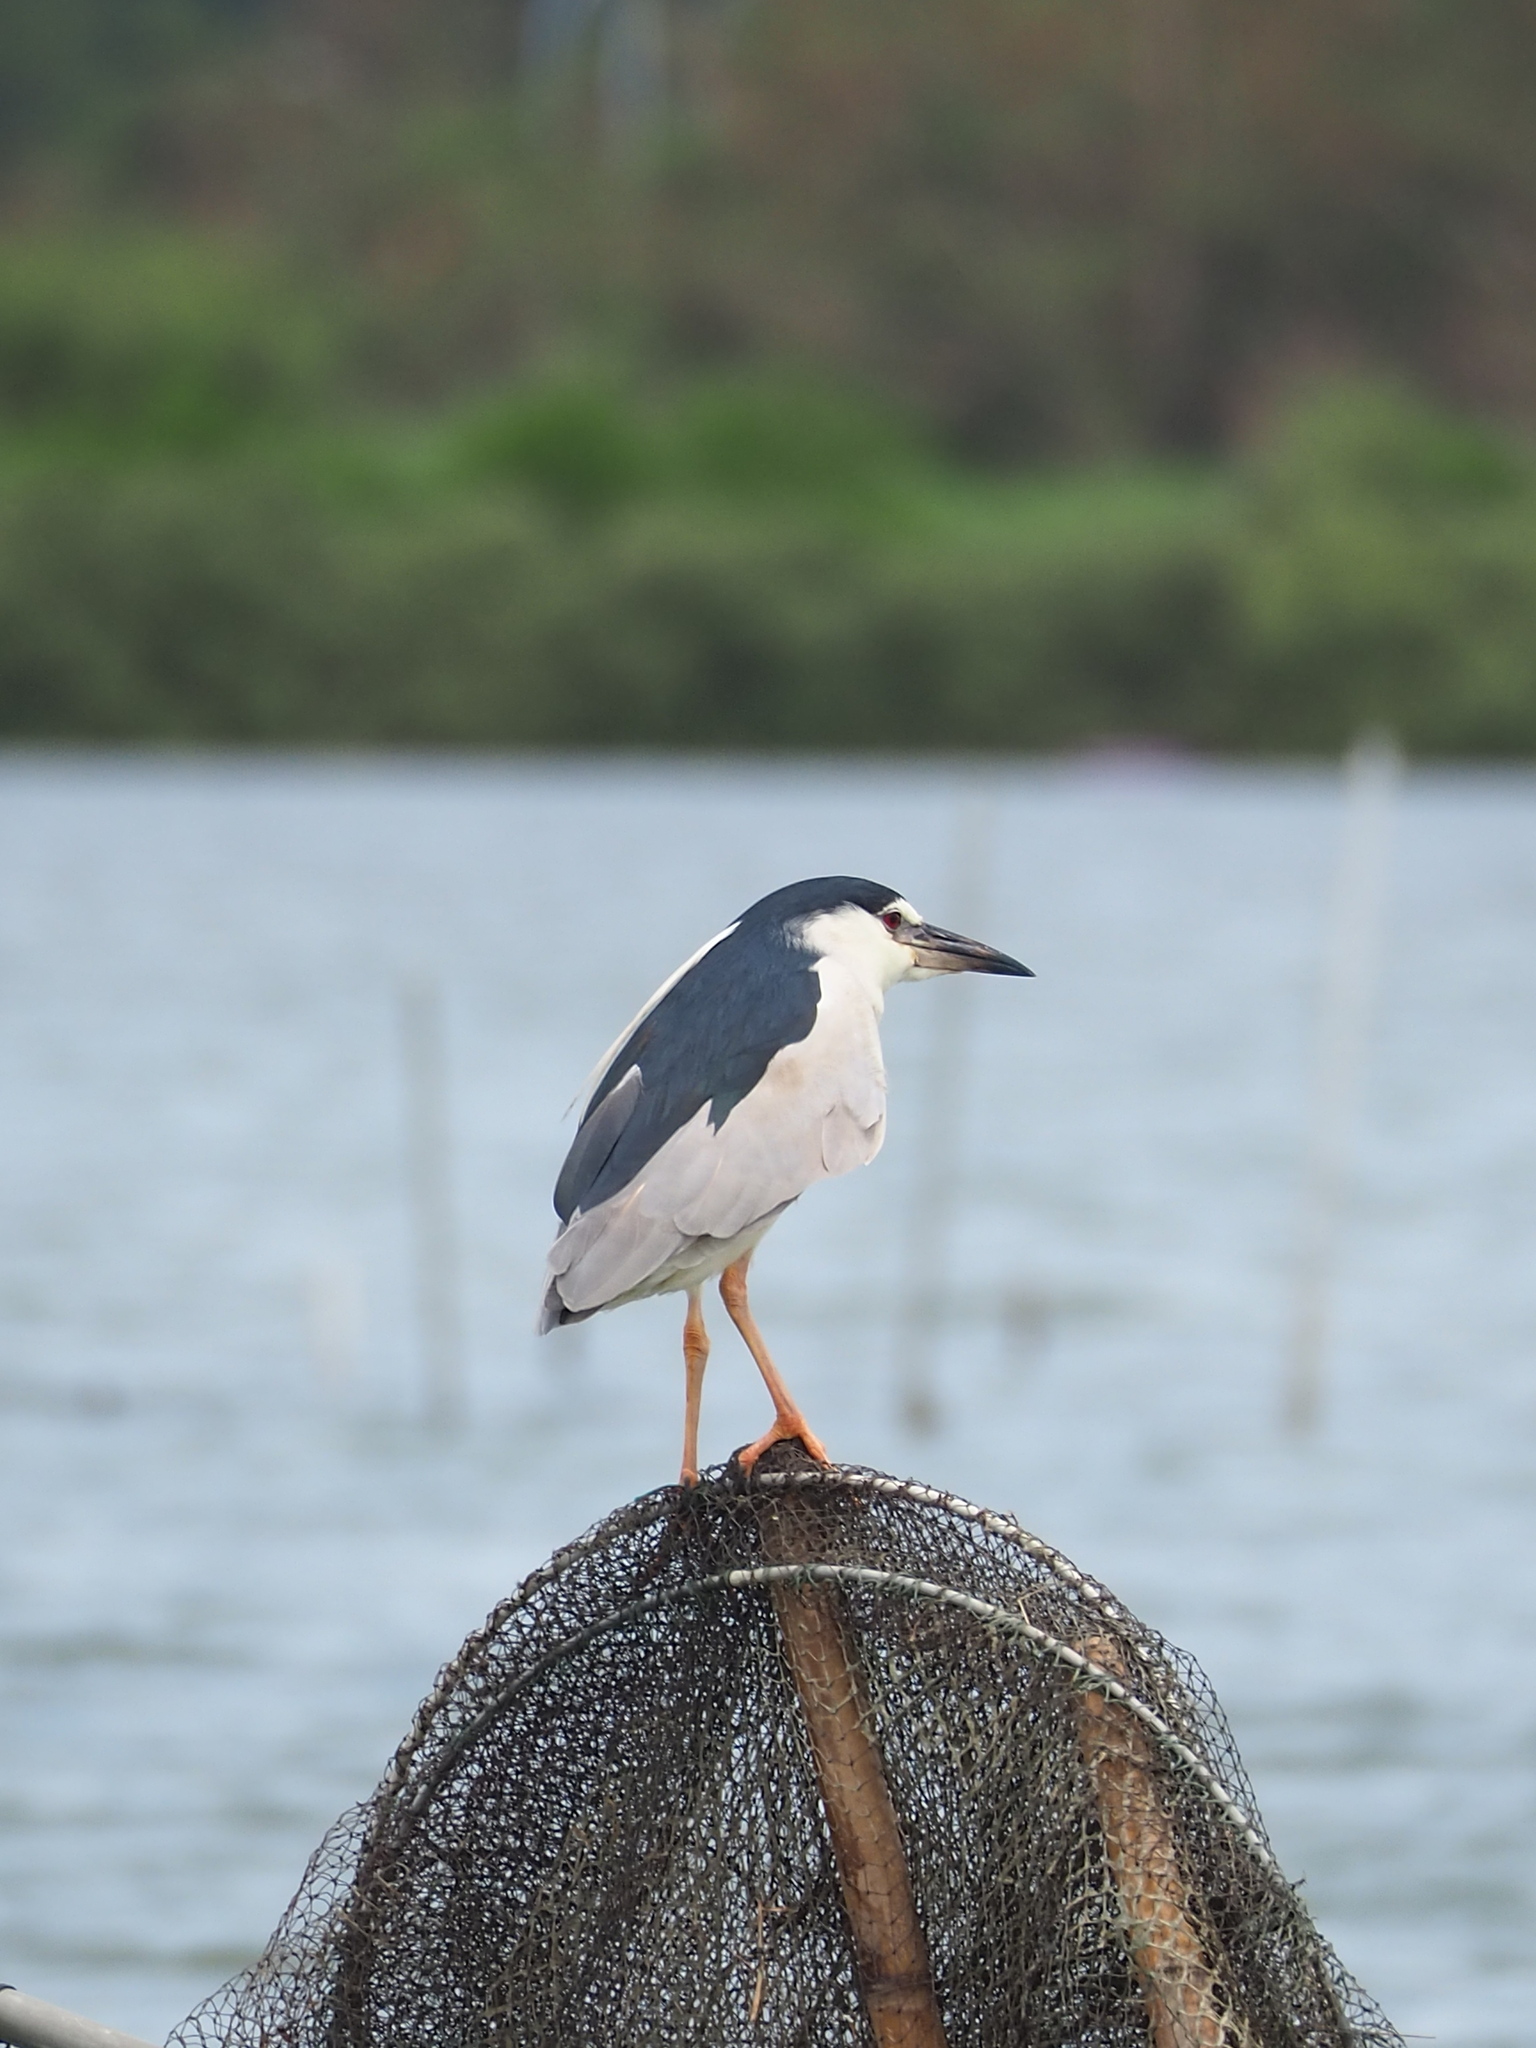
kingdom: Animalia
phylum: Chordata
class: Aves
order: Pelecaniformes
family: Ardeidae
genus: Nycticorax
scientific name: Nycticorax nycticorax
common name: Black-crowned night heron
